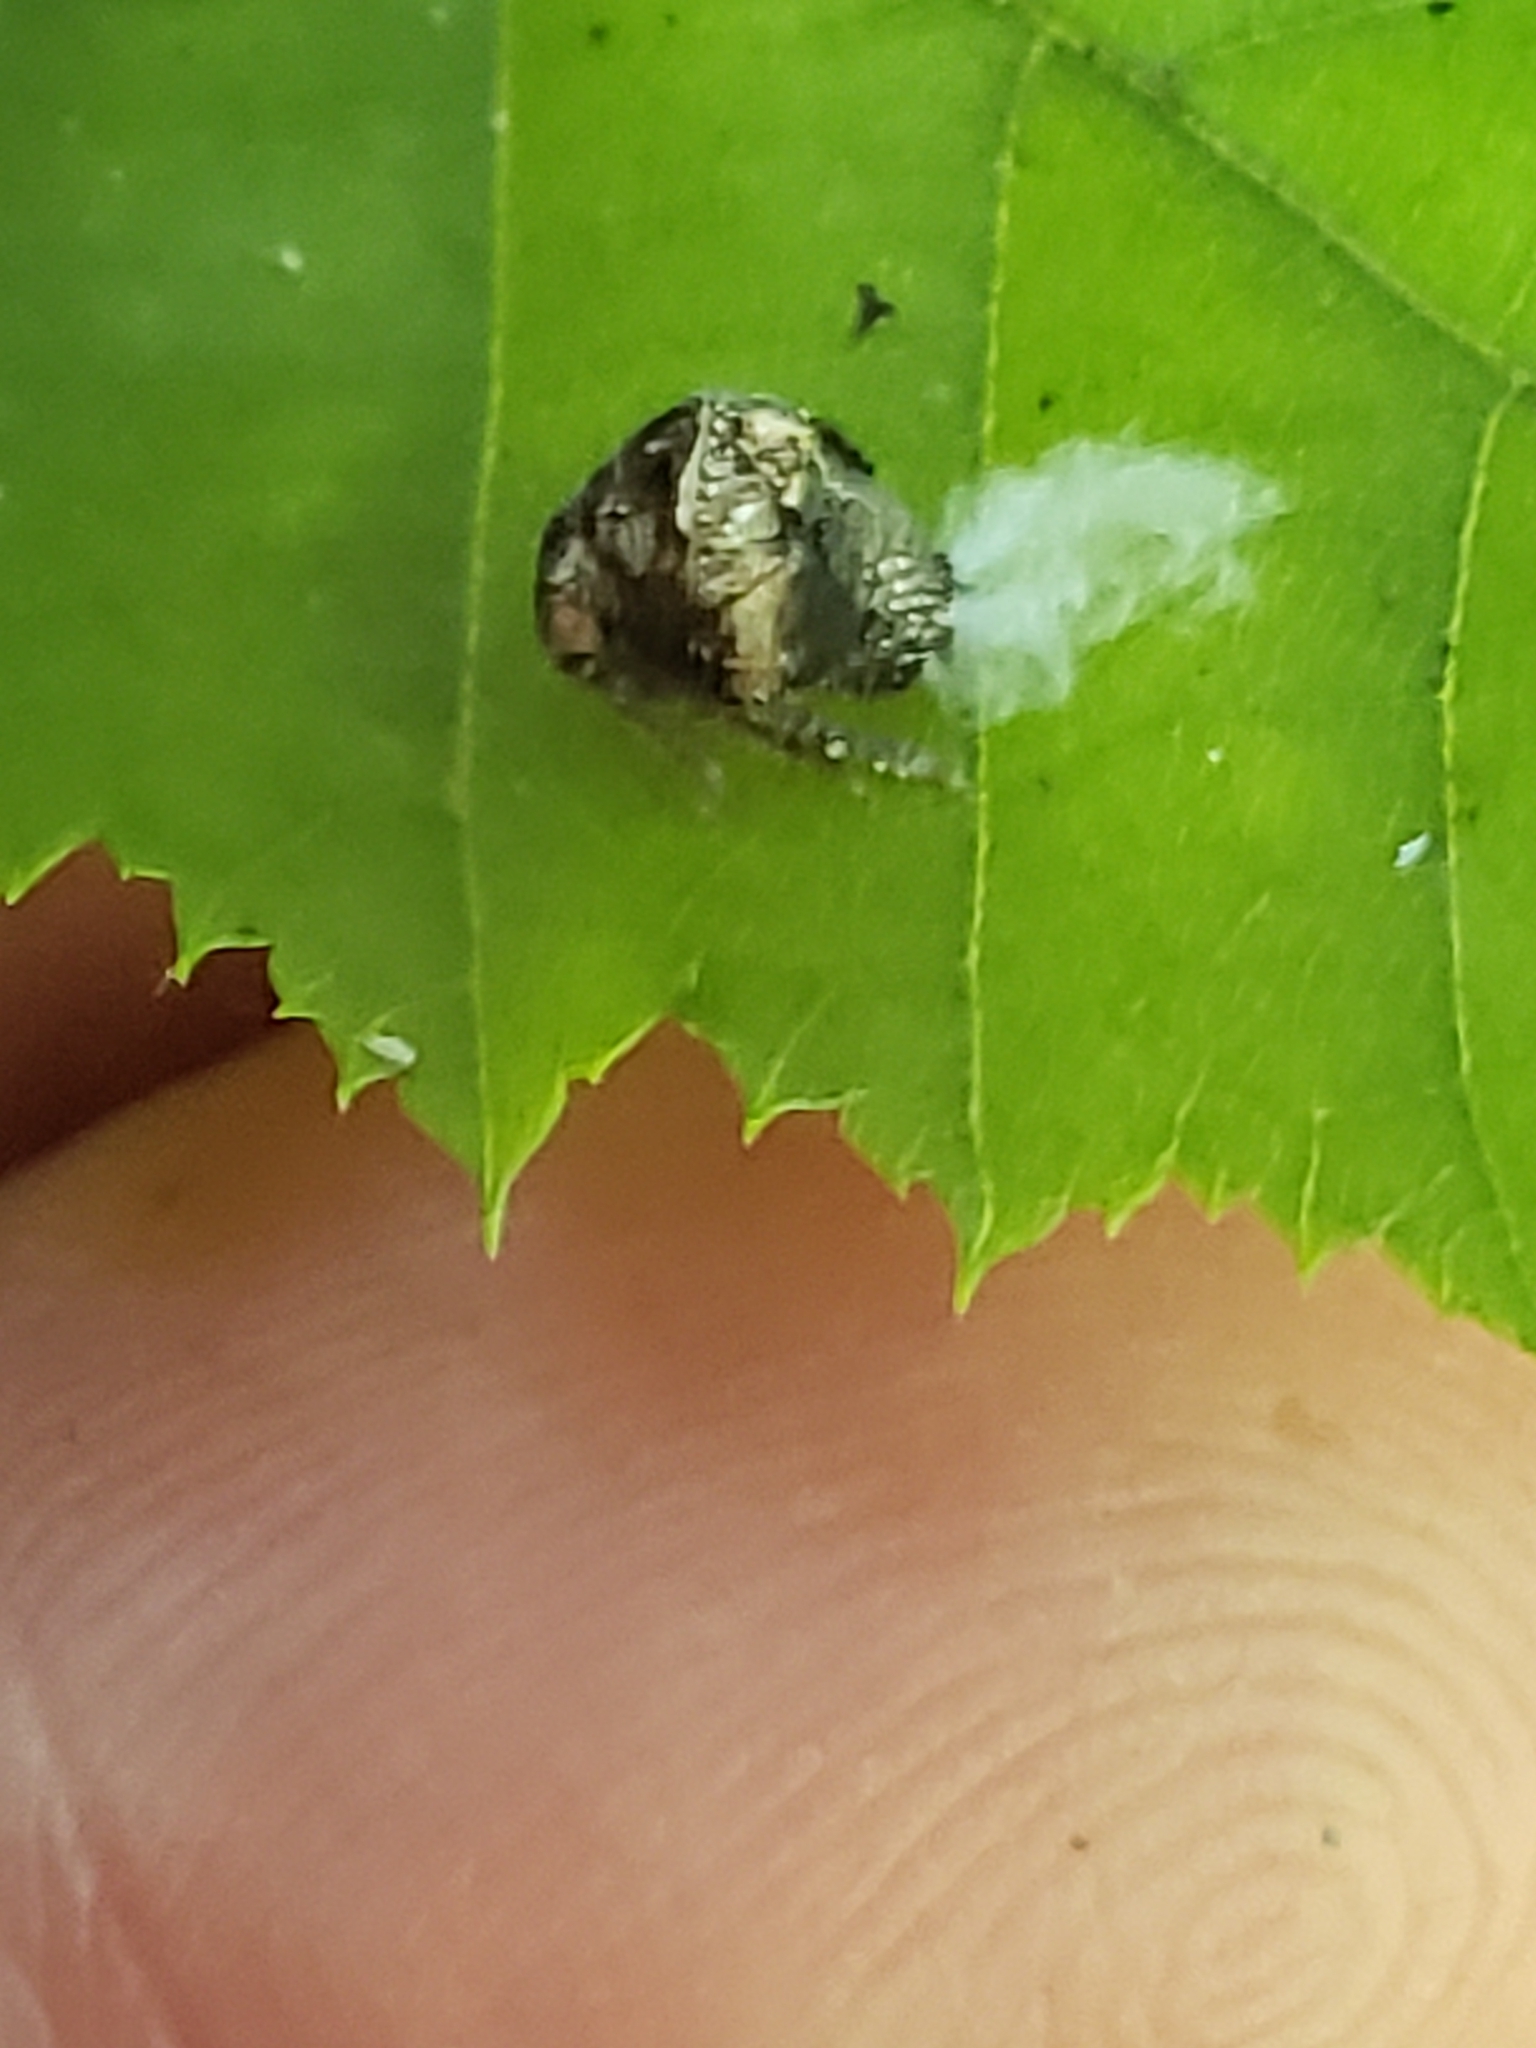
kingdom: Animalia
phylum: Arthropoda
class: Insecta
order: Hemiptera
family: Acanaloniidae
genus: Acanalonia
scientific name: Acanalonia bivittata
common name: Two-striped planthopper
